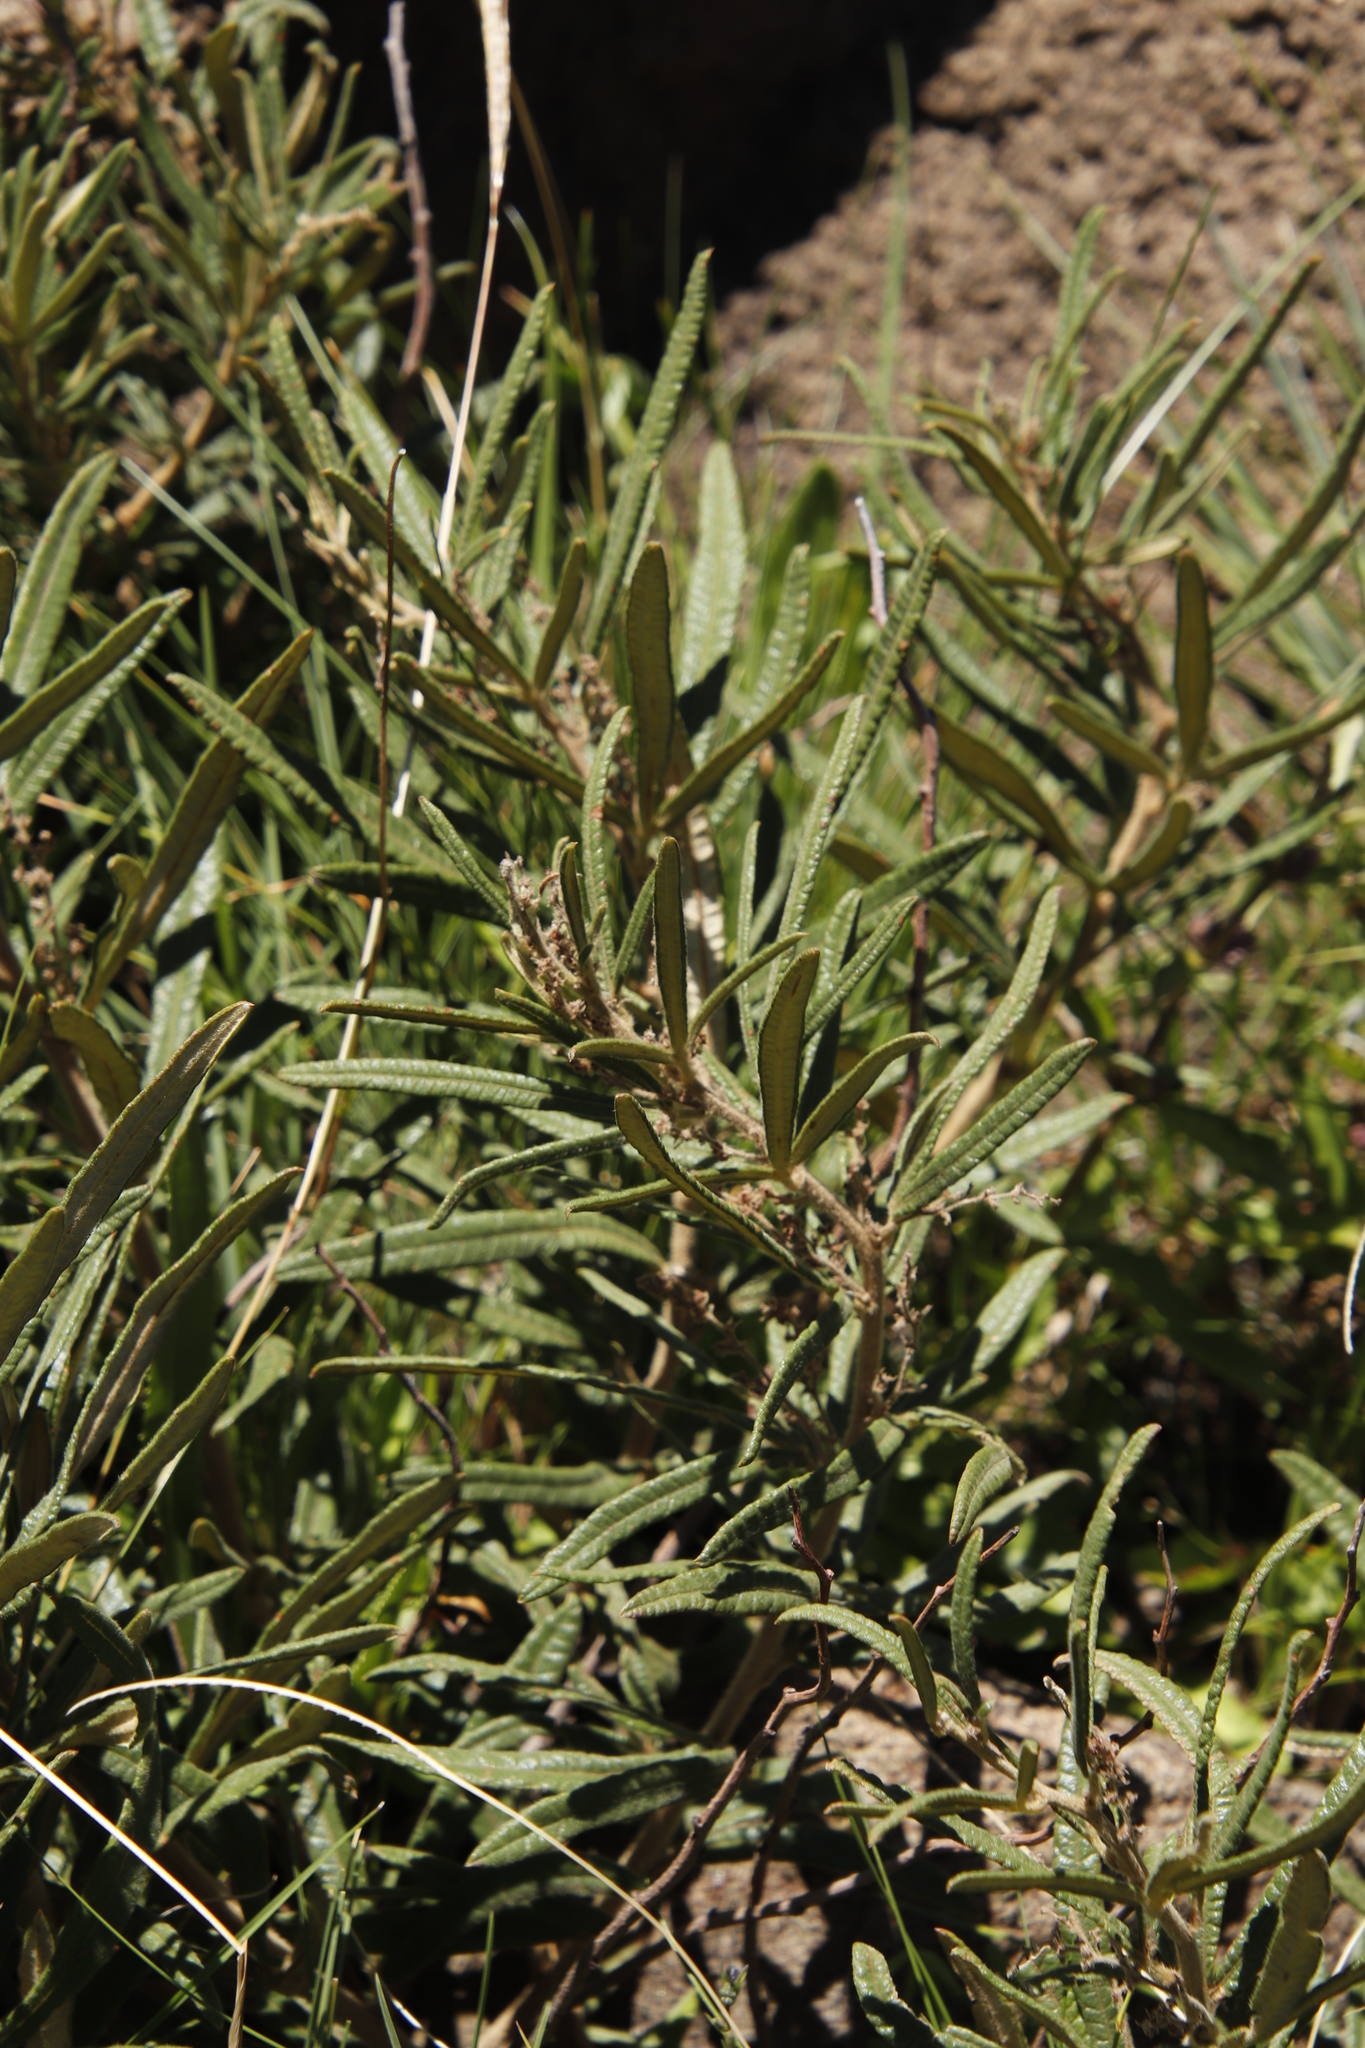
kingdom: Plantae
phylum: Tracheophyta
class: Magnoliopsida
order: Sapindales
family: Anacardiaceae
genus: Searsia
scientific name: Searsia discolor
